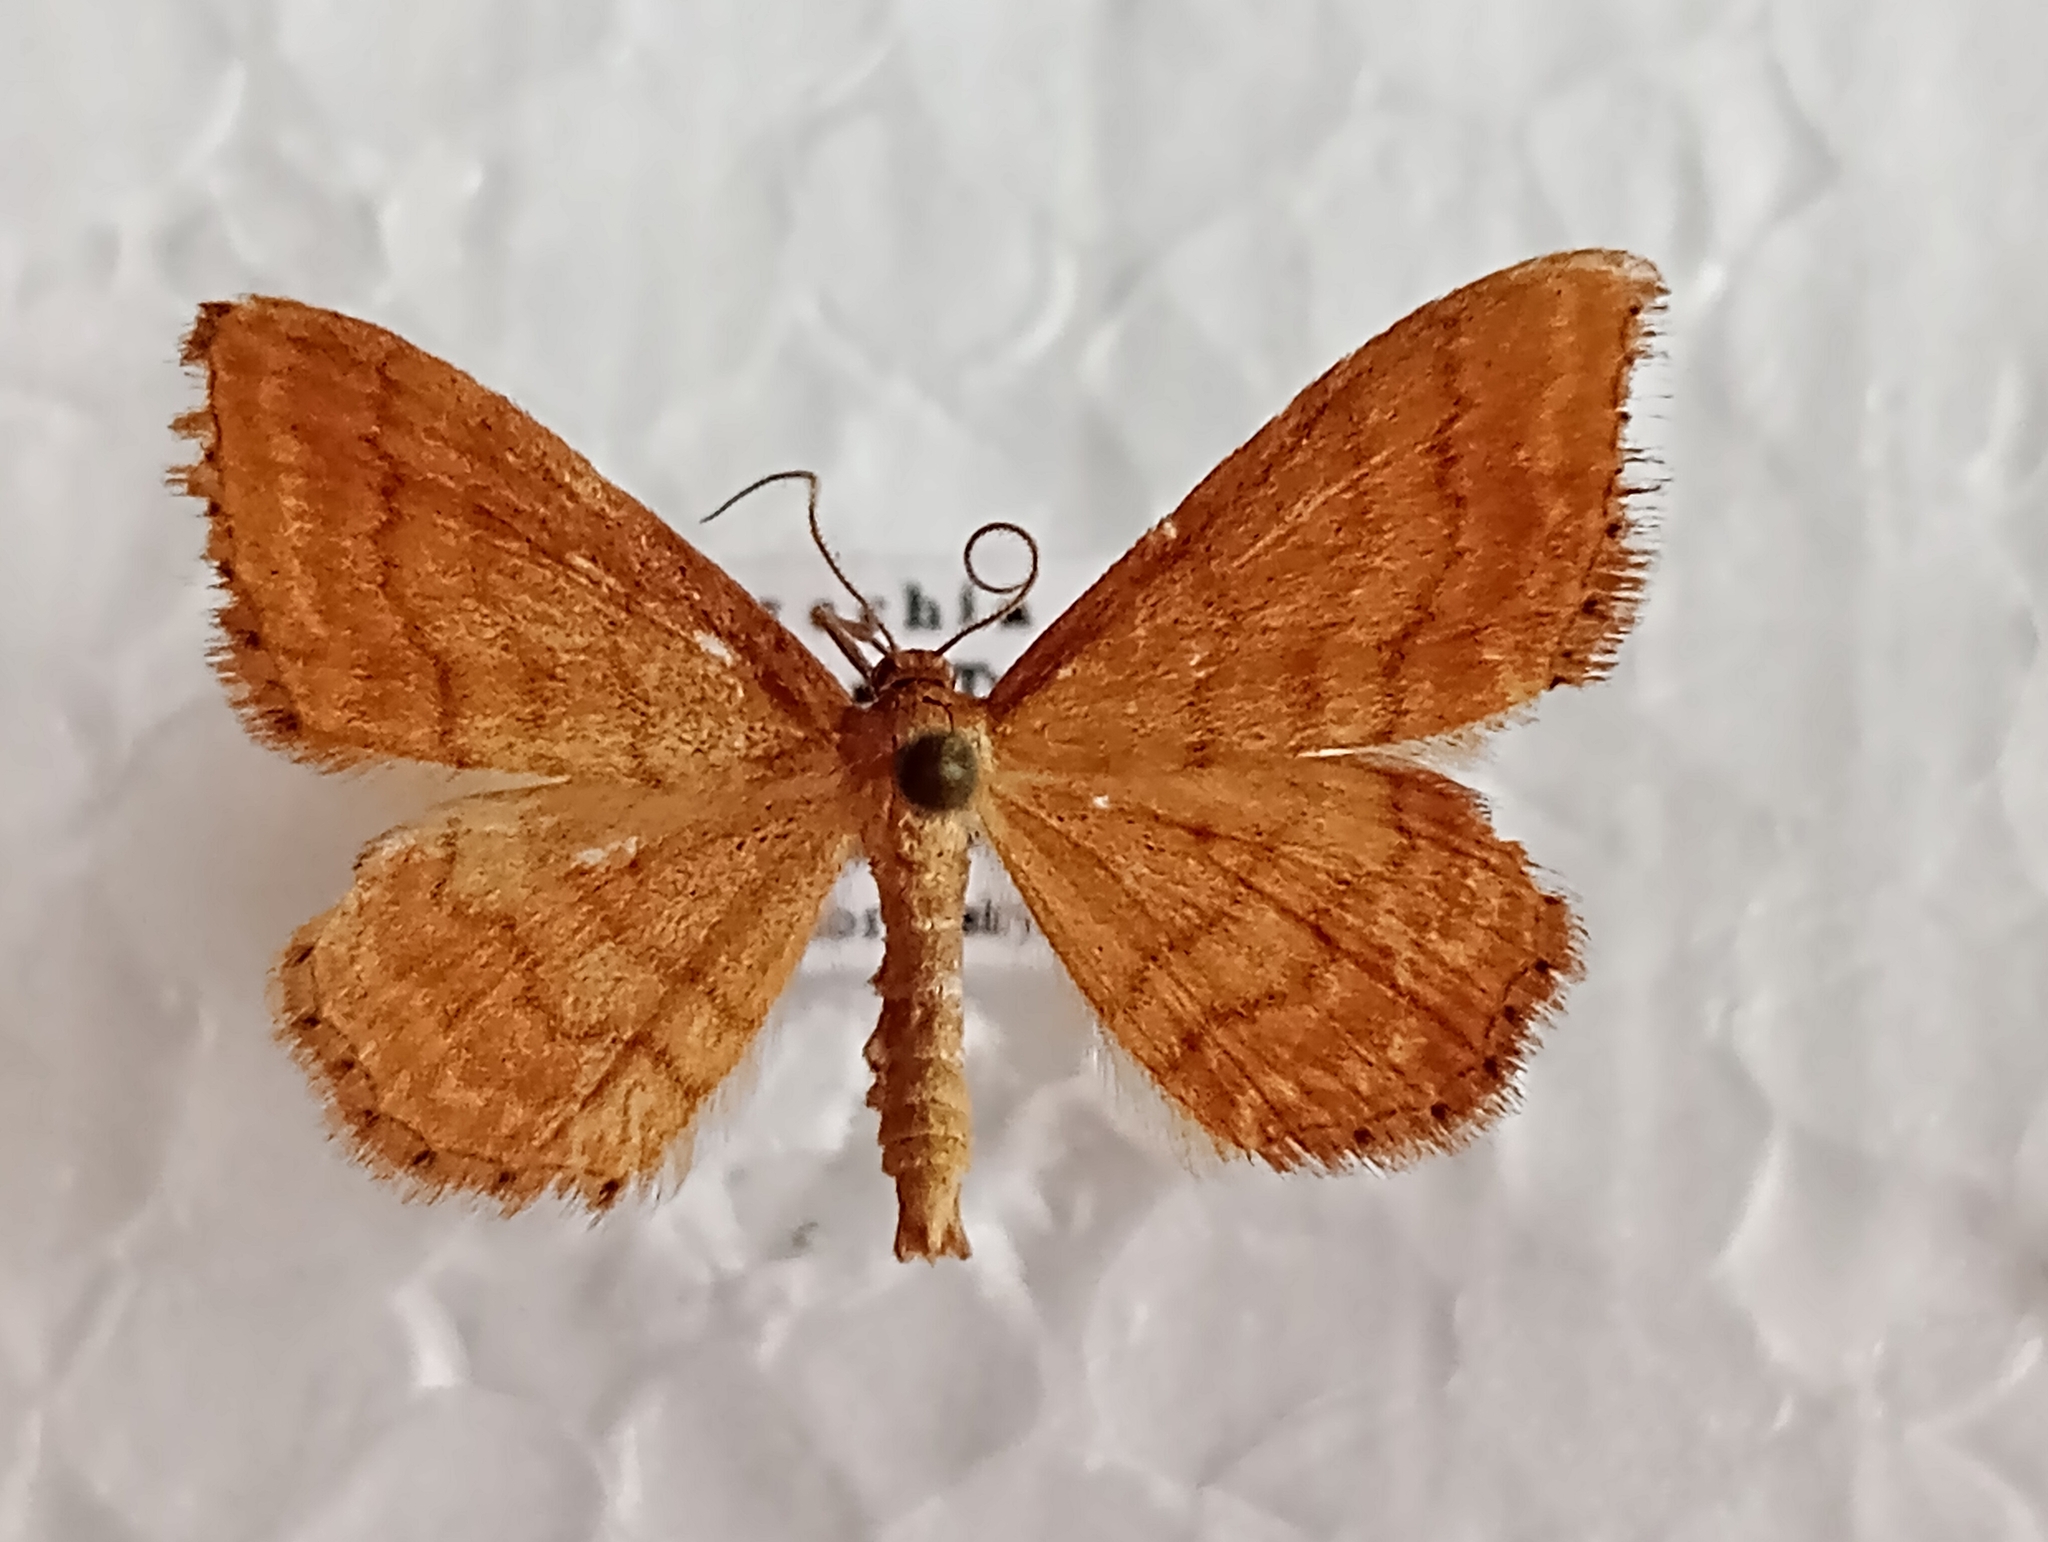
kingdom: Animalia
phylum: Arthropoda
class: Insecta
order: Lepidoptera
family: Geometridae
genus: Idaea
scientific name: Idaea ochrata
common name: Bright wave
